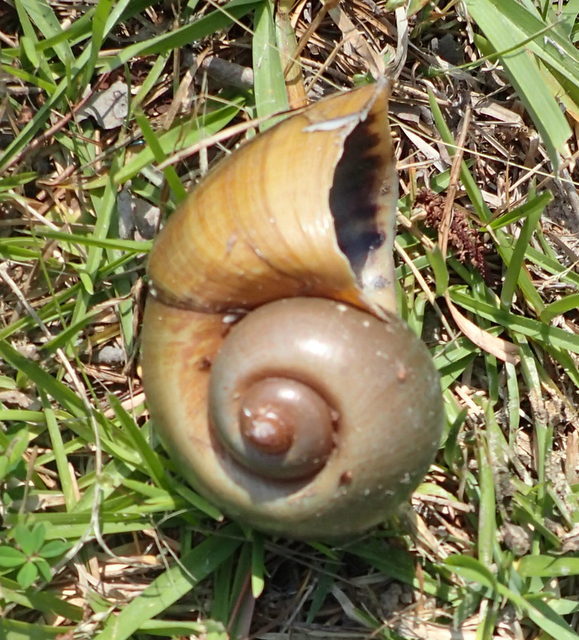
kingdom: Animalia
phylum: Mollusca
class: Gastropoda
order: Architaenioglossa
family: Ampullariidae
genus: Pomacea
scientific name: Pomacea maculata
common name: Giant applesnail
